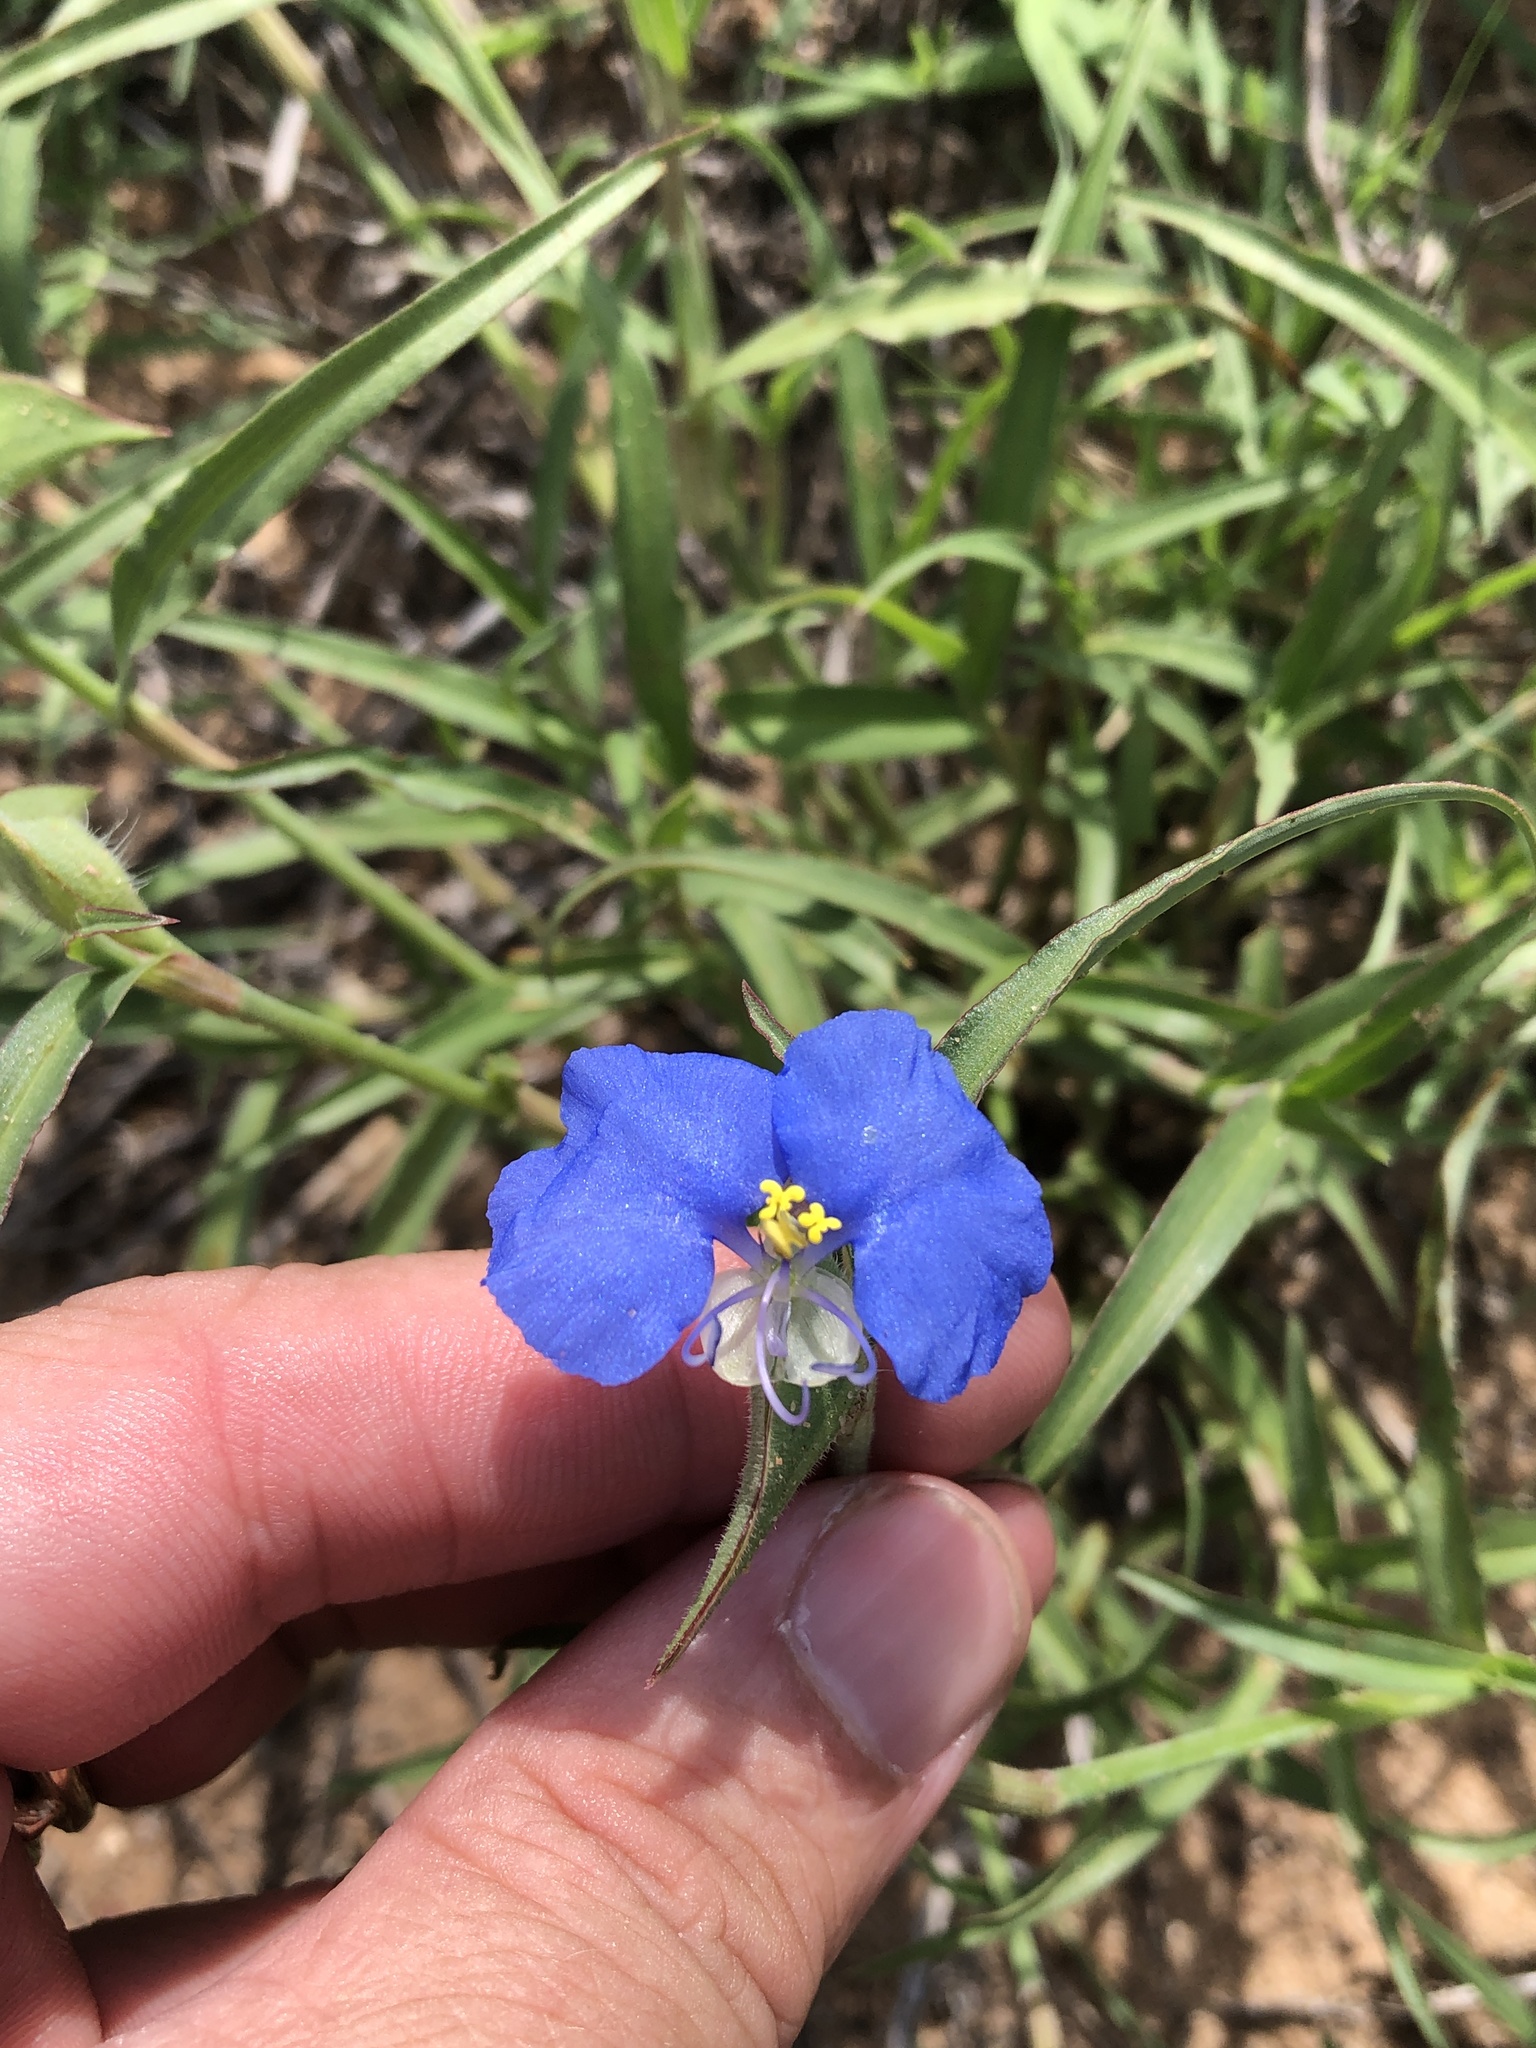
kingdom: Plantae
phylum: Tracheophyta
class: Liliopsida
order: Commelinales
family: Commelinaceae
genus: Commelina
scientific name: Commelina erecta
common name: Blousel blommetjie
